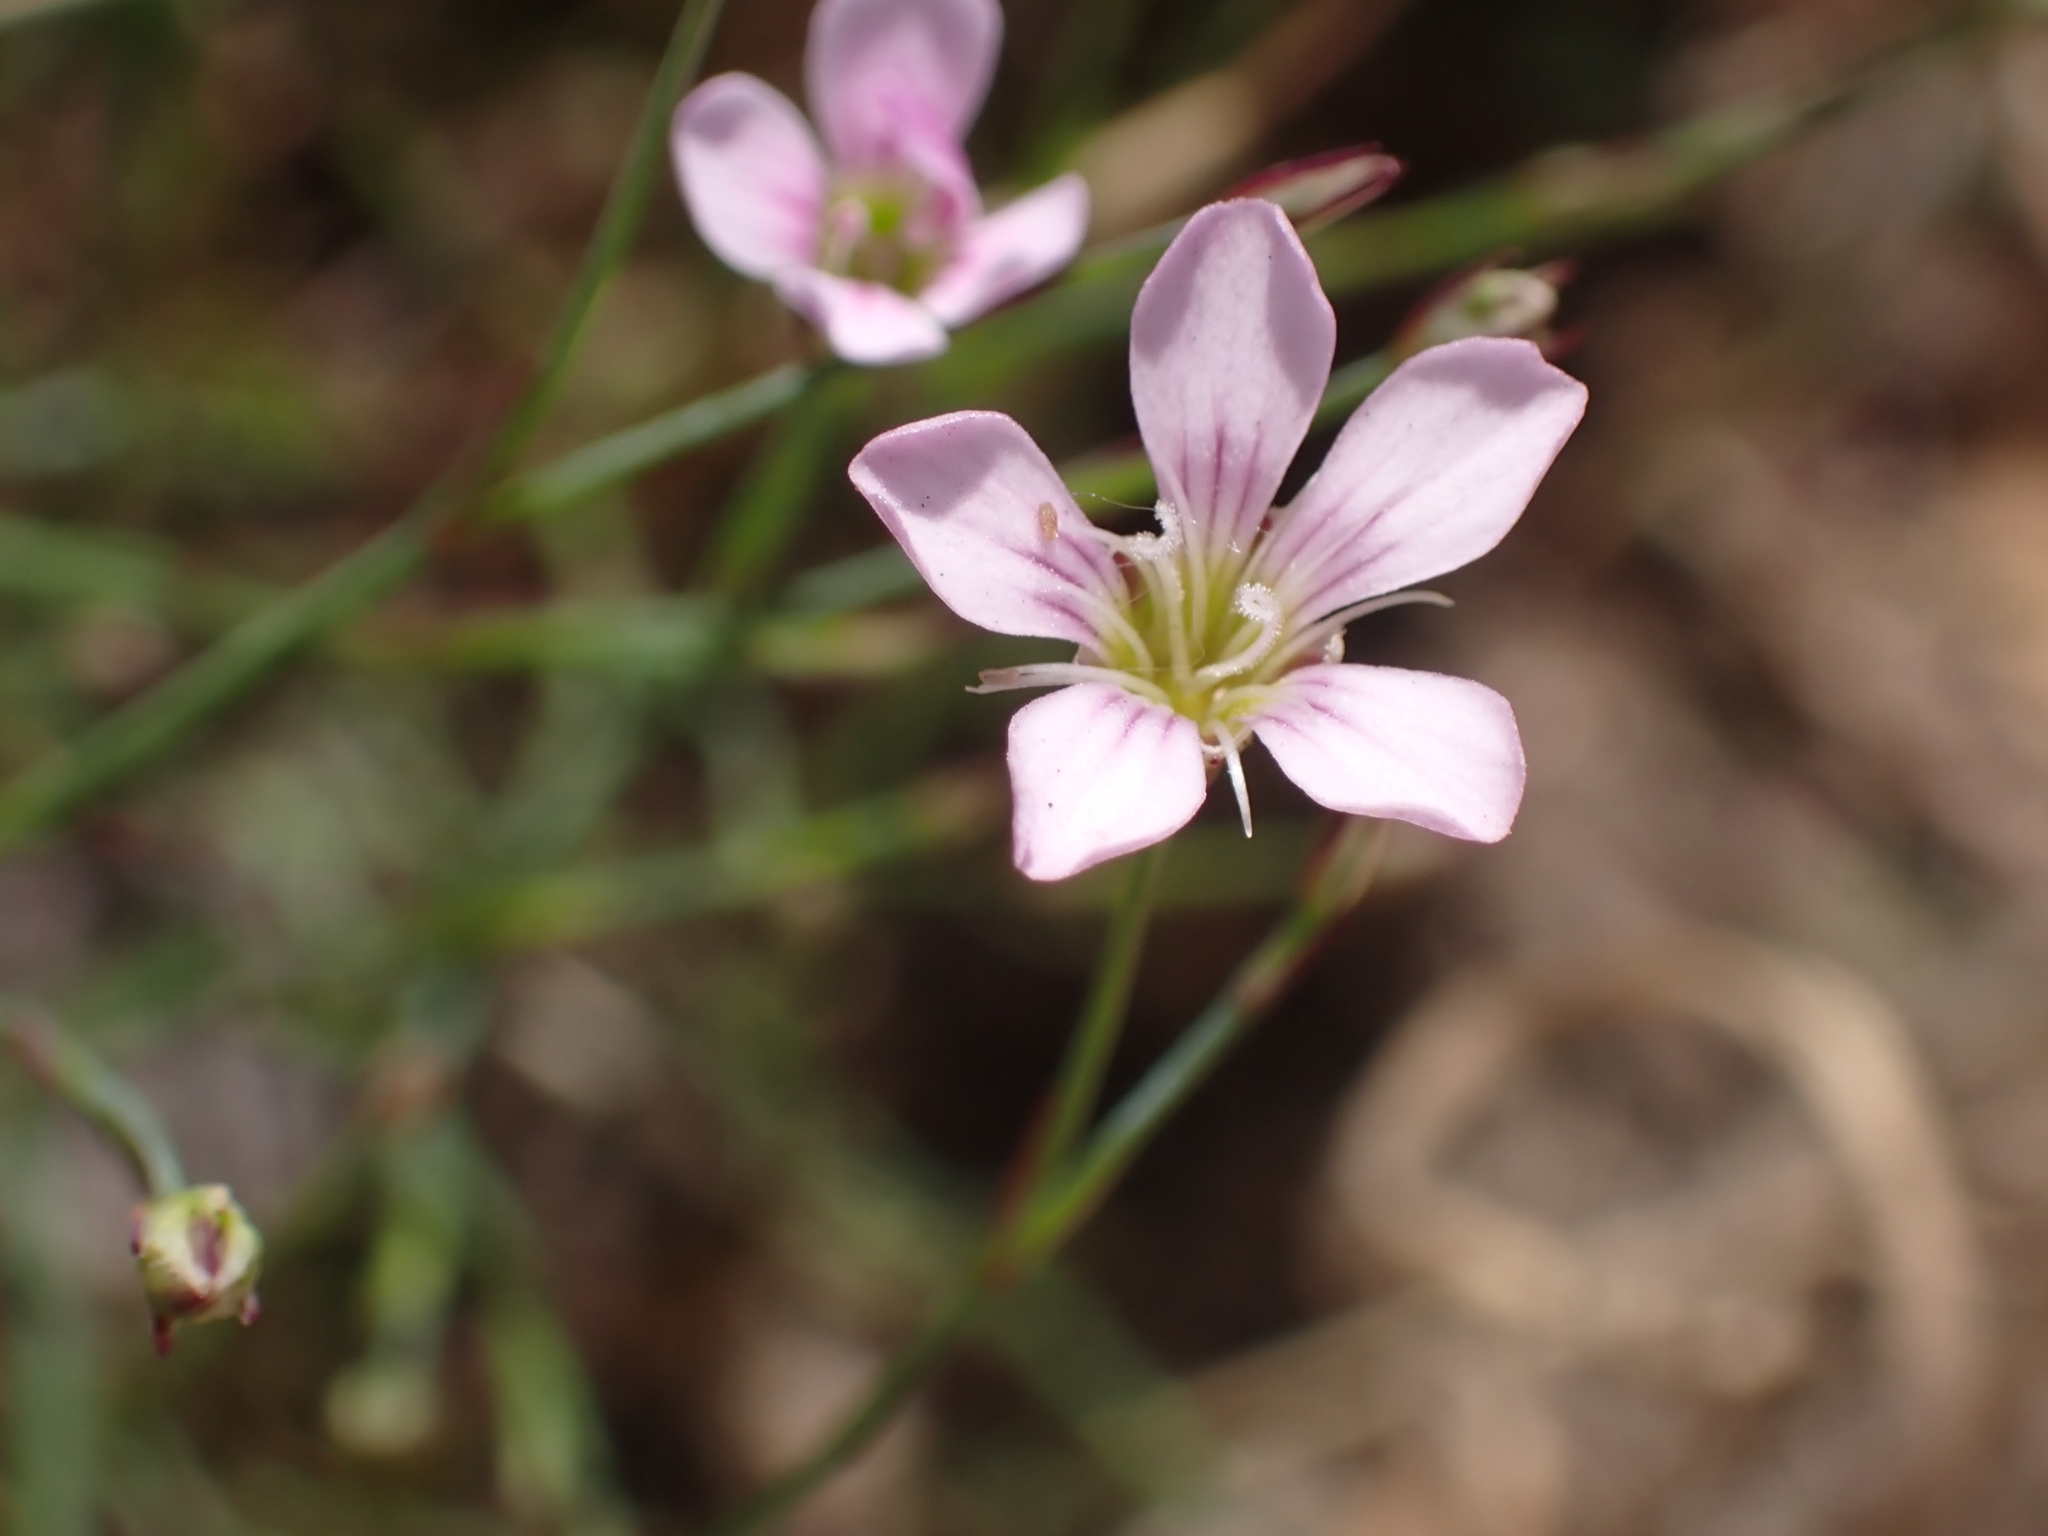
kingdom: Plantae
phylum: Tracheophyta
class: Magnoliopsida
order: Caryophyllales
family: Caryophyllaceae
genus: Petrorhagia
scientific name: Petrorhagia saxifraga
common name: Tunicflower
